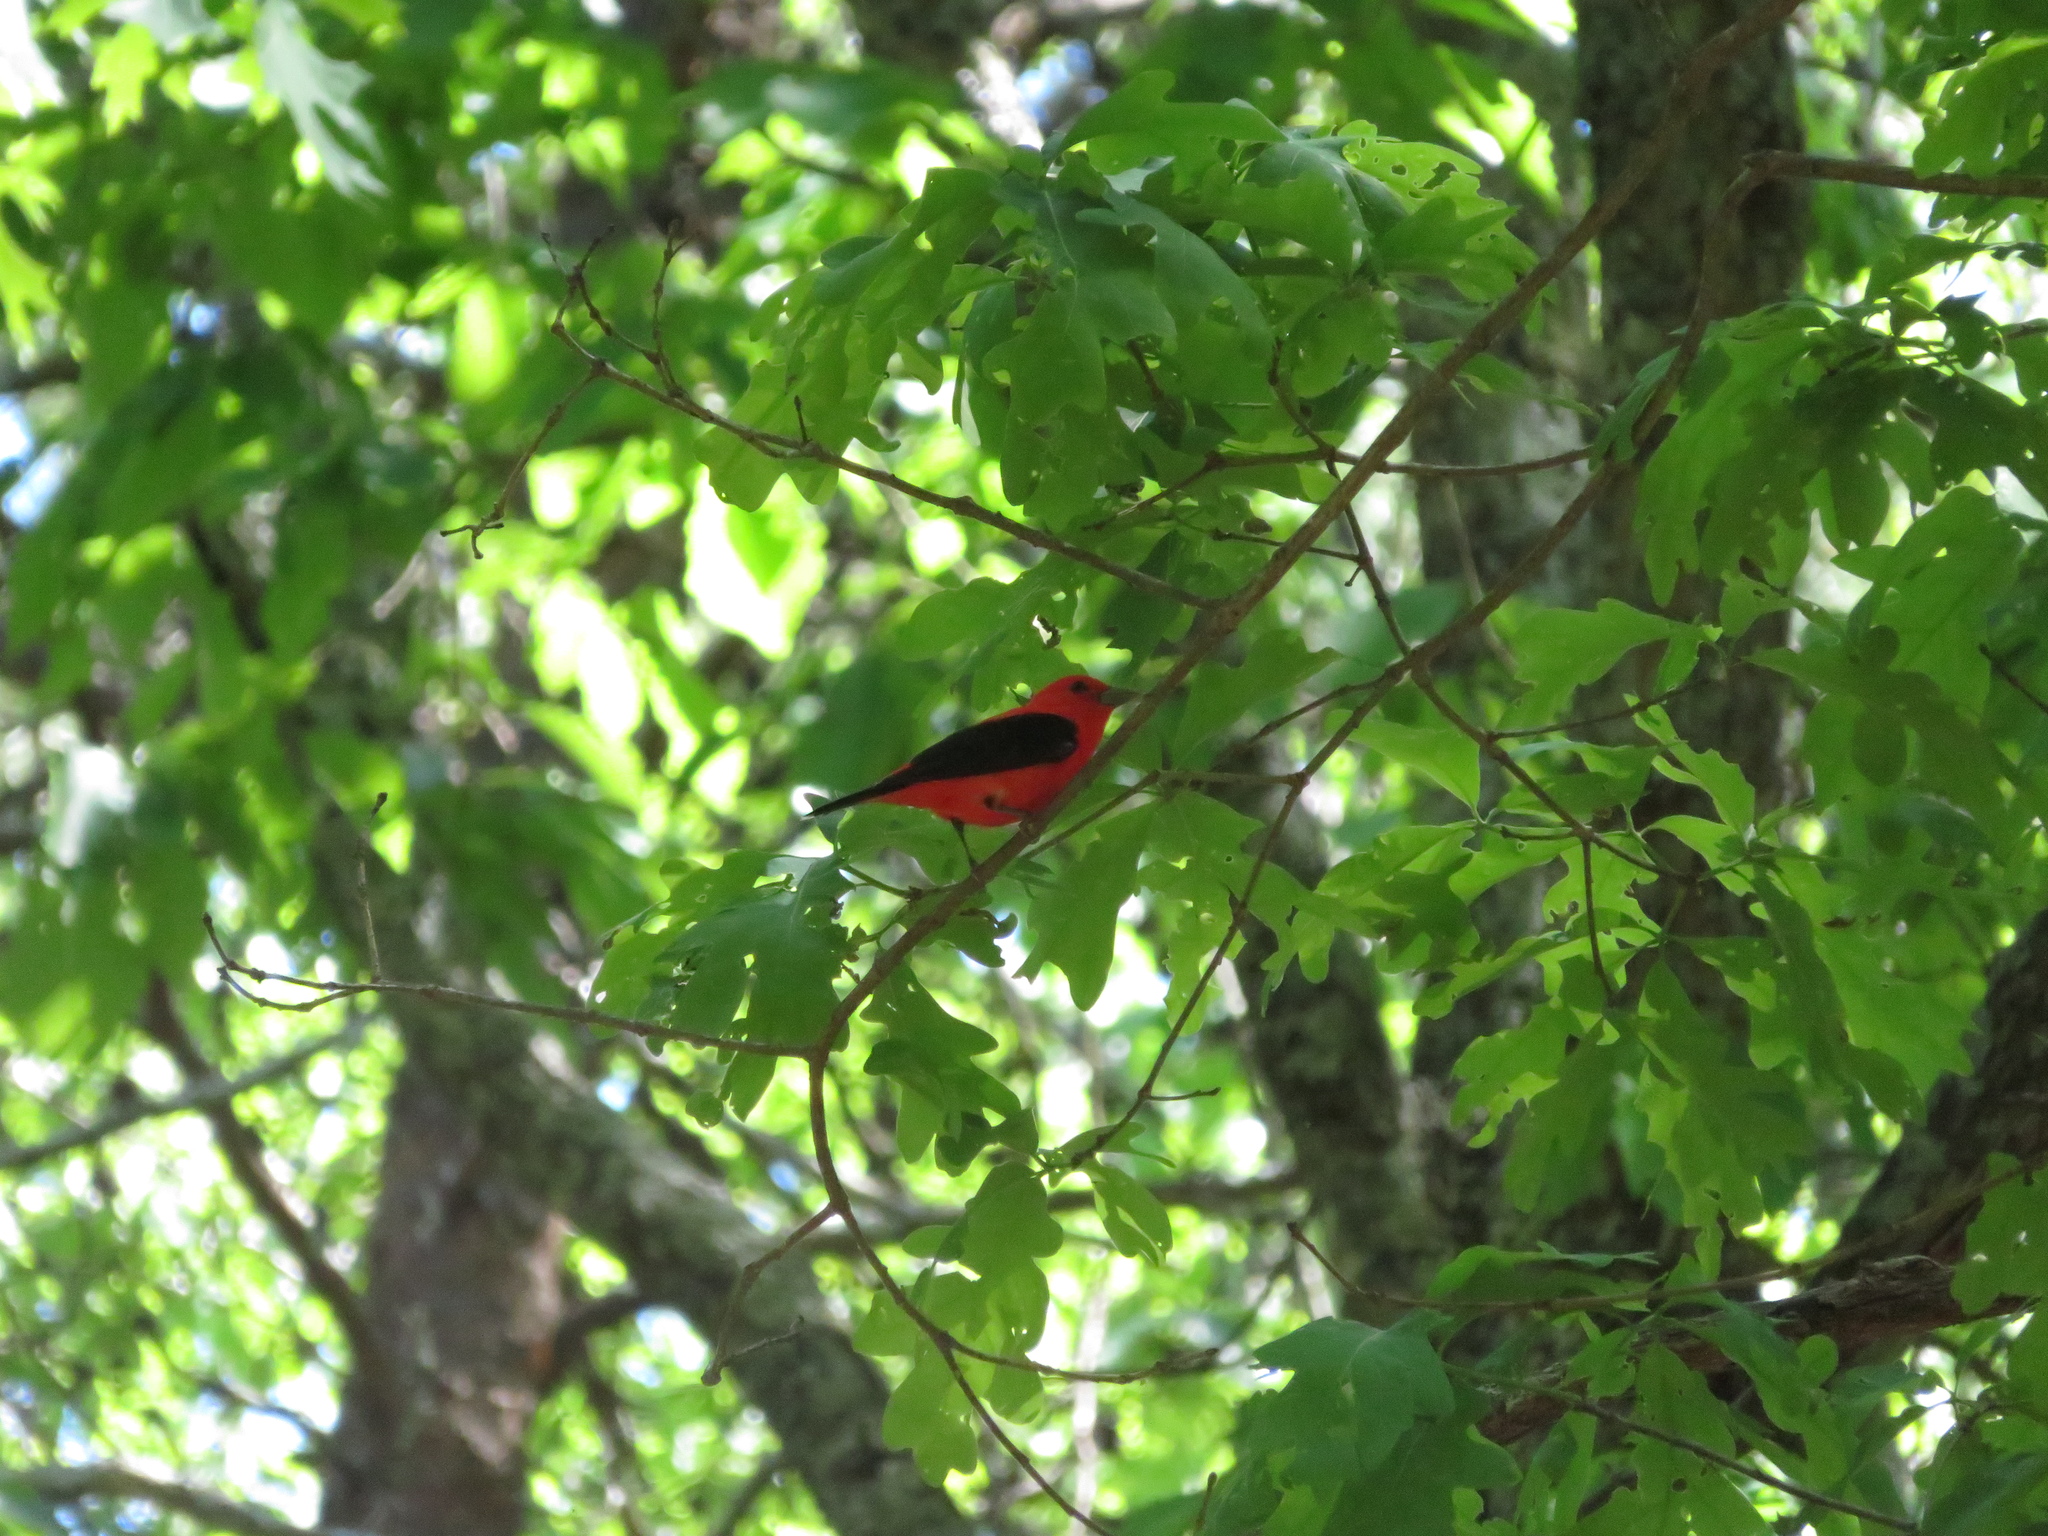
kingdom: Animalia
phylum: Chordata
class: Aves
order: Passeriformes
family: Cardinalidae
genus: Piranga
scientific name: Piranga olivacea
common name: Scarlet tanager
